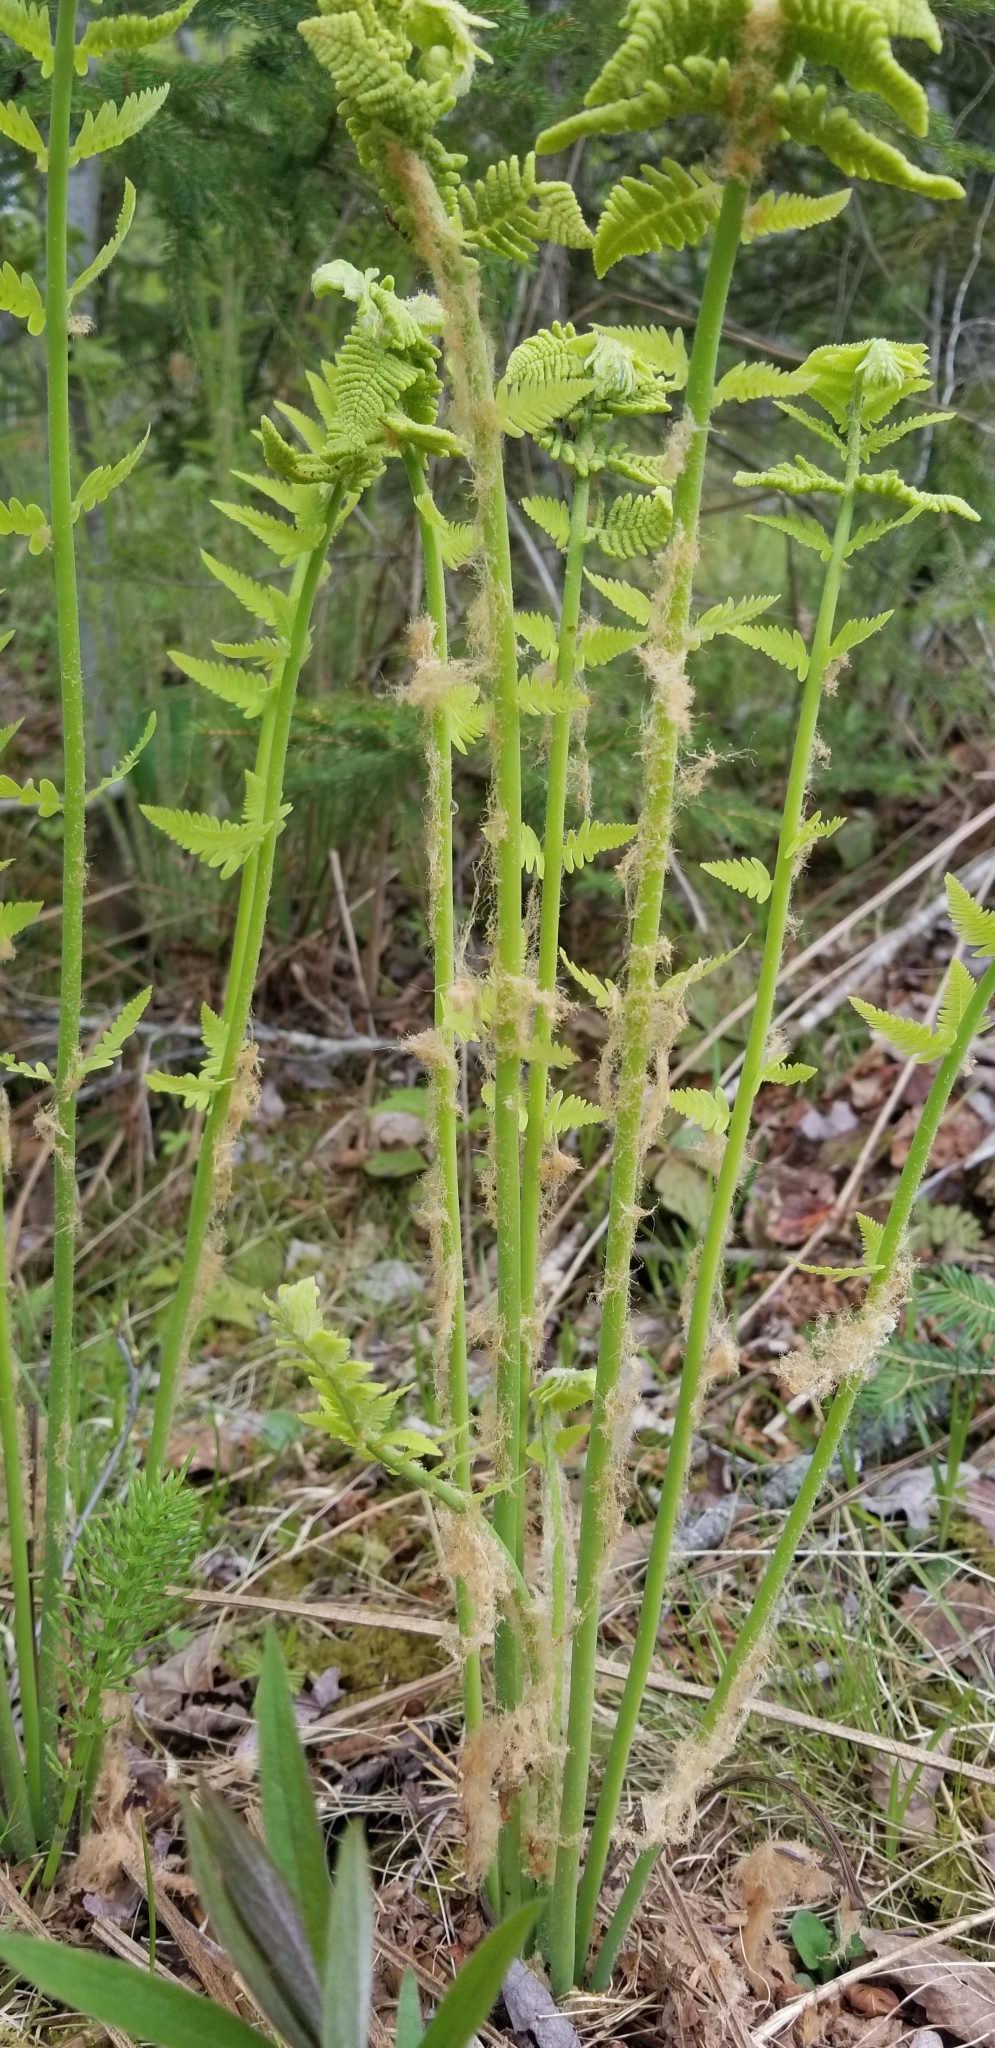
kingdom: Plantae
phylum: Tracheophyta
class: Polypodiopsida
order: Osmundales
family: Osmundaceae
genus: Claytosmunda
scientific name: Claytosmunda claytoniana
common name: Clayton's fern
